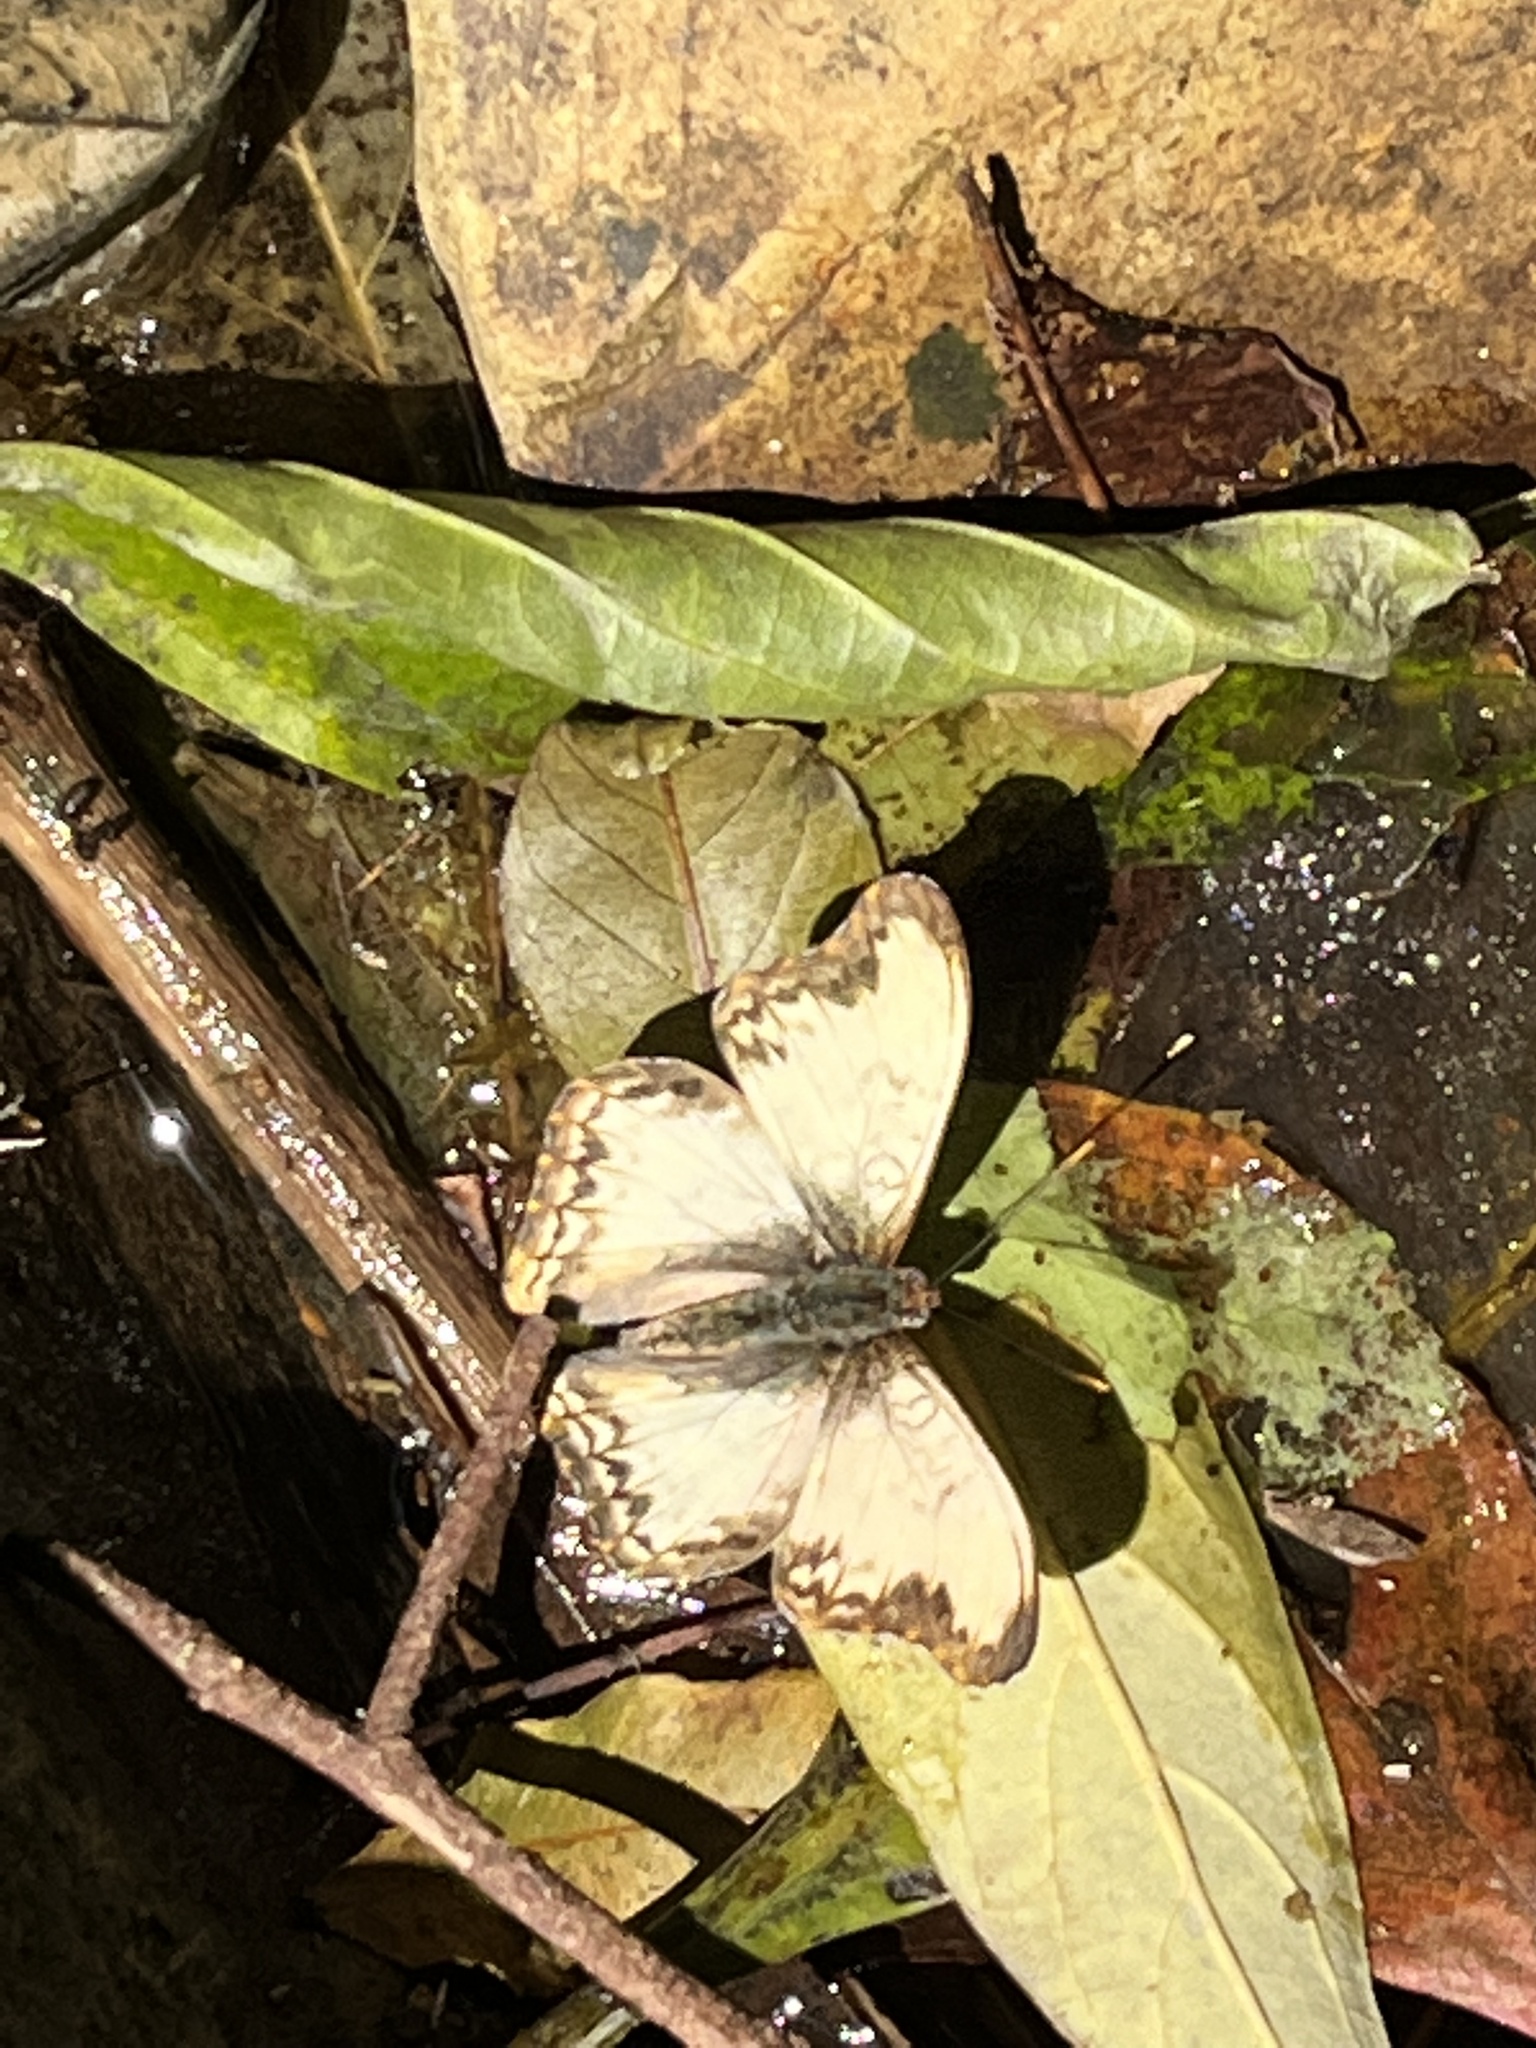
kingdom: Animalia
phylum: Arthropoda
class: Insecta
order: Lepidoptera
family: Nymphalidae
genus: Cymothoe
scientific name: Cymothoe alcimeda
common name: Battling glider
